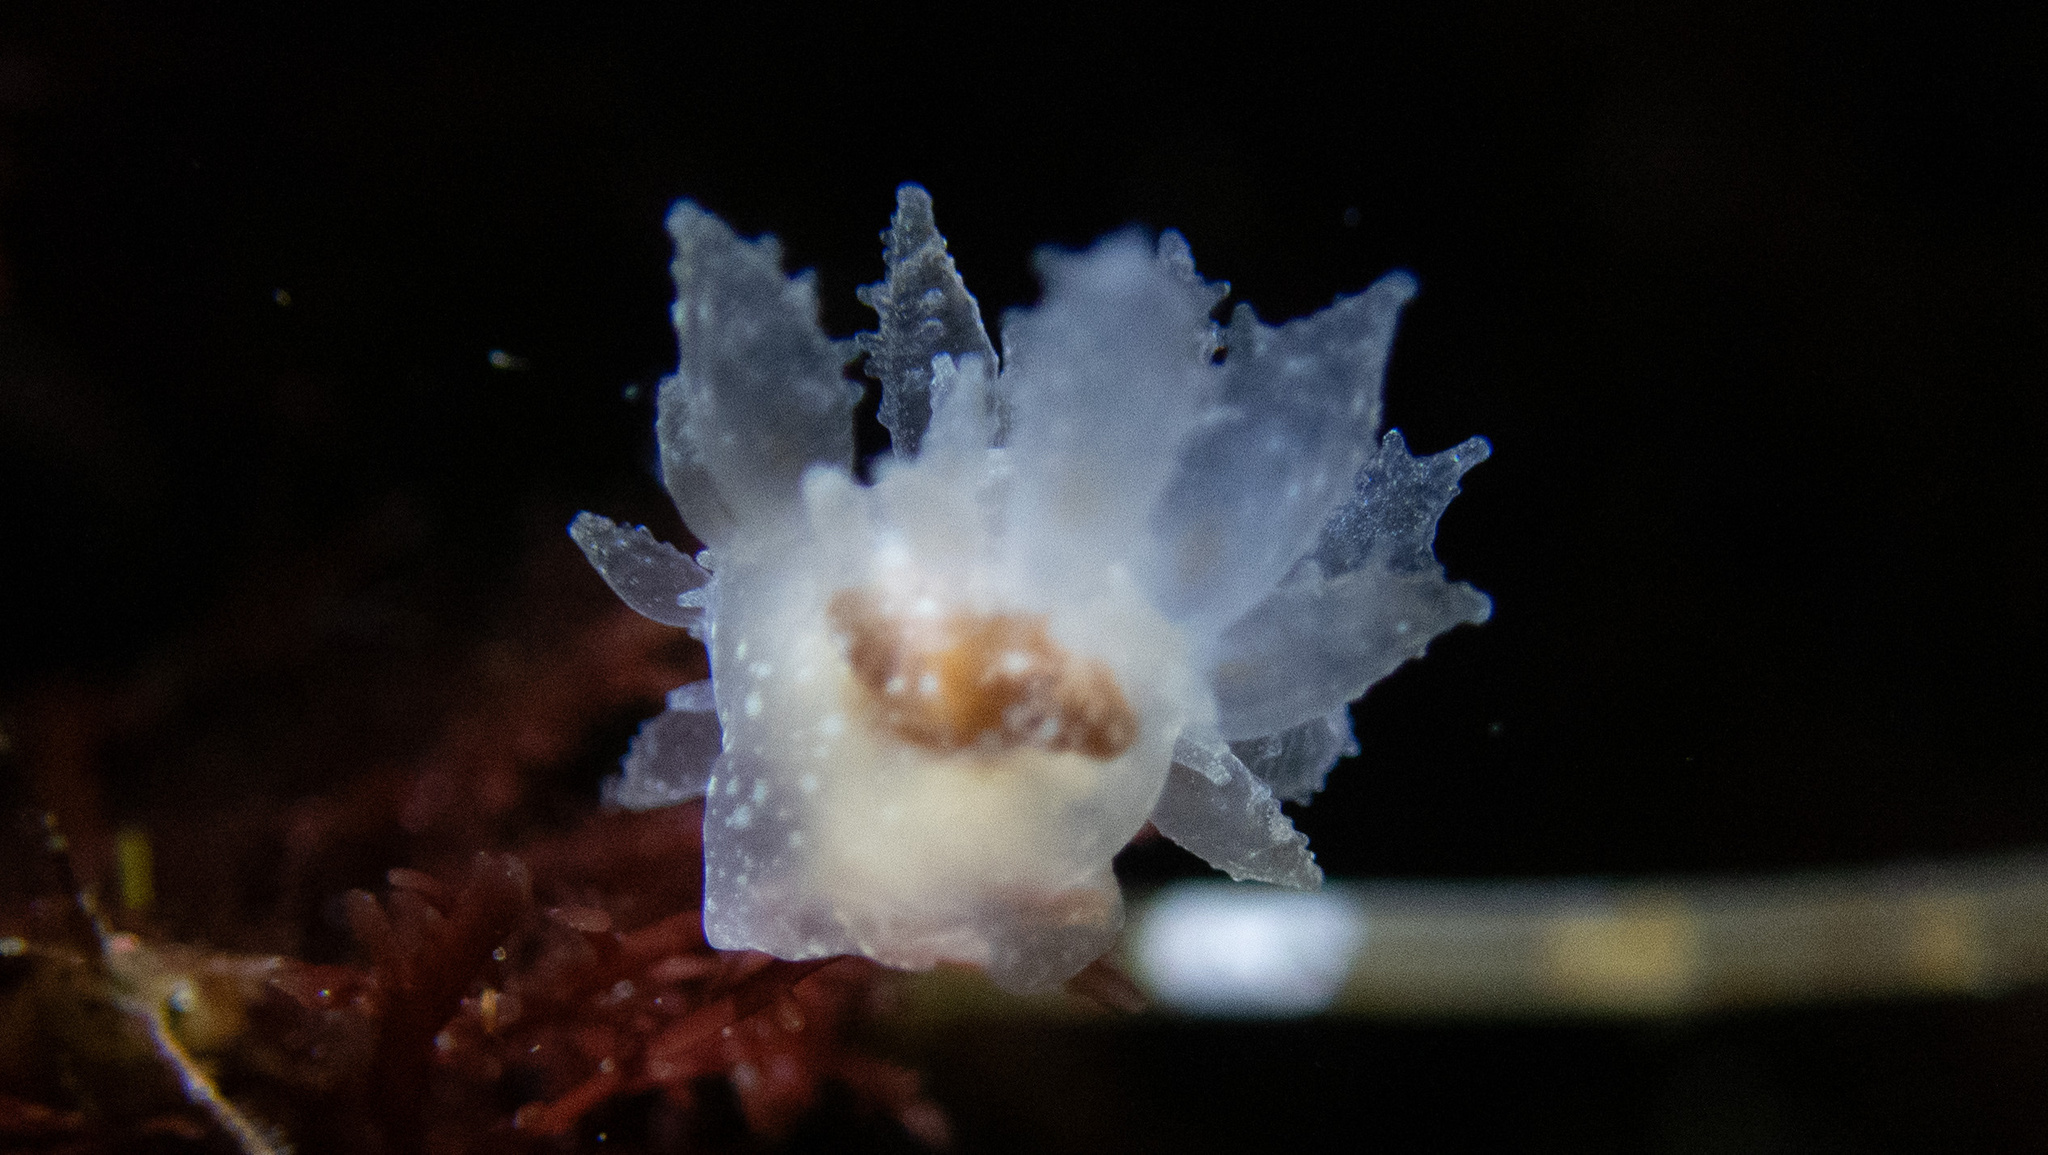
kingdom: Animalia
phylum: Mollusca
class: Gastropoda
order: Nudibranchia
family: Dironidae
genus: Dirona
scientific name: Dirona picta
